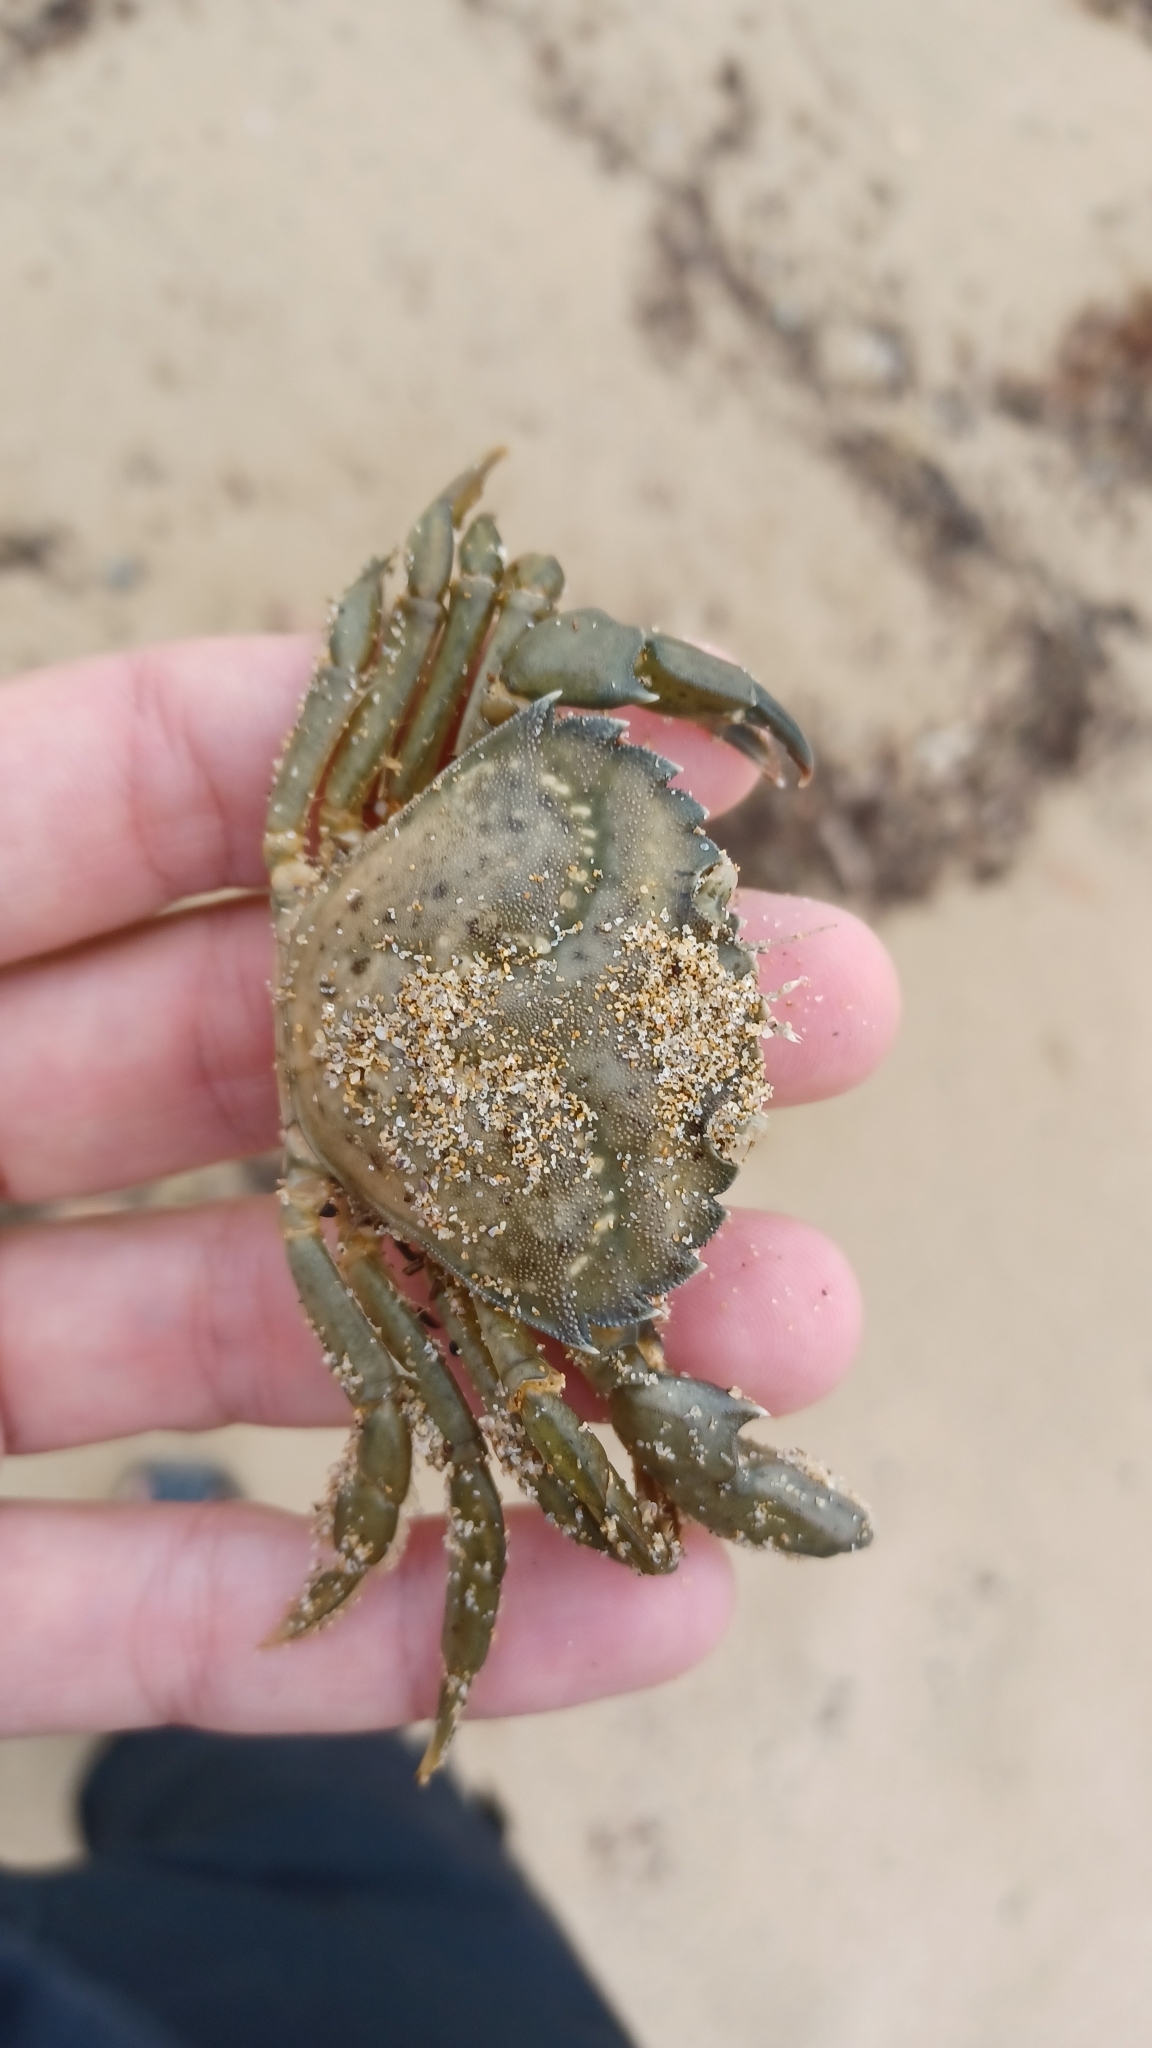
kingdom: Animalia
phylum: Arthropoda
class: Malacostraca
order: Decapoda
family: Carcinidae
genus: Carcinus
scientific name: Carcinus maenas
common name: European green crab
